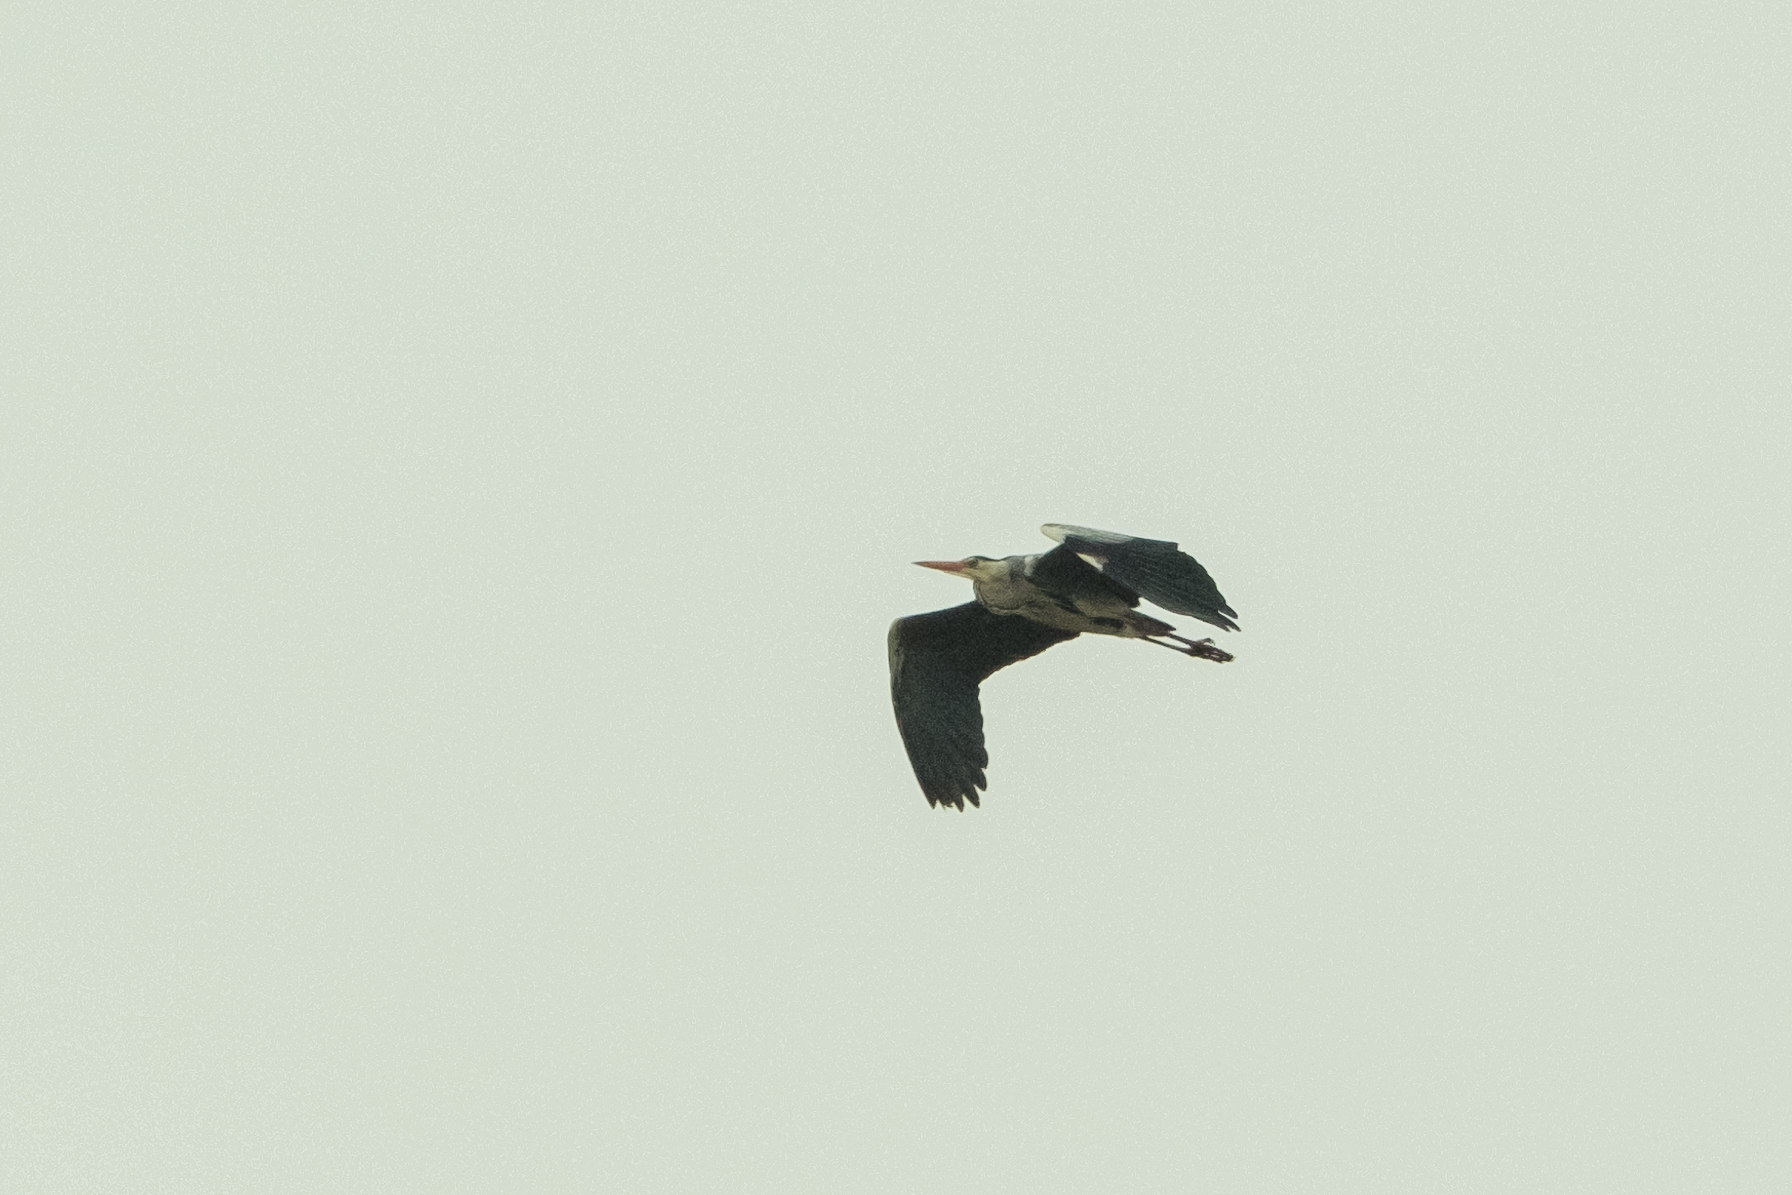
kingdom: Animalia
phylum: Chordata
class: Aves
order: Pelecaniformes
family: Ardeidae
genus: Ardea
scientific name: Ardea cinerea
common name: Grey heron
